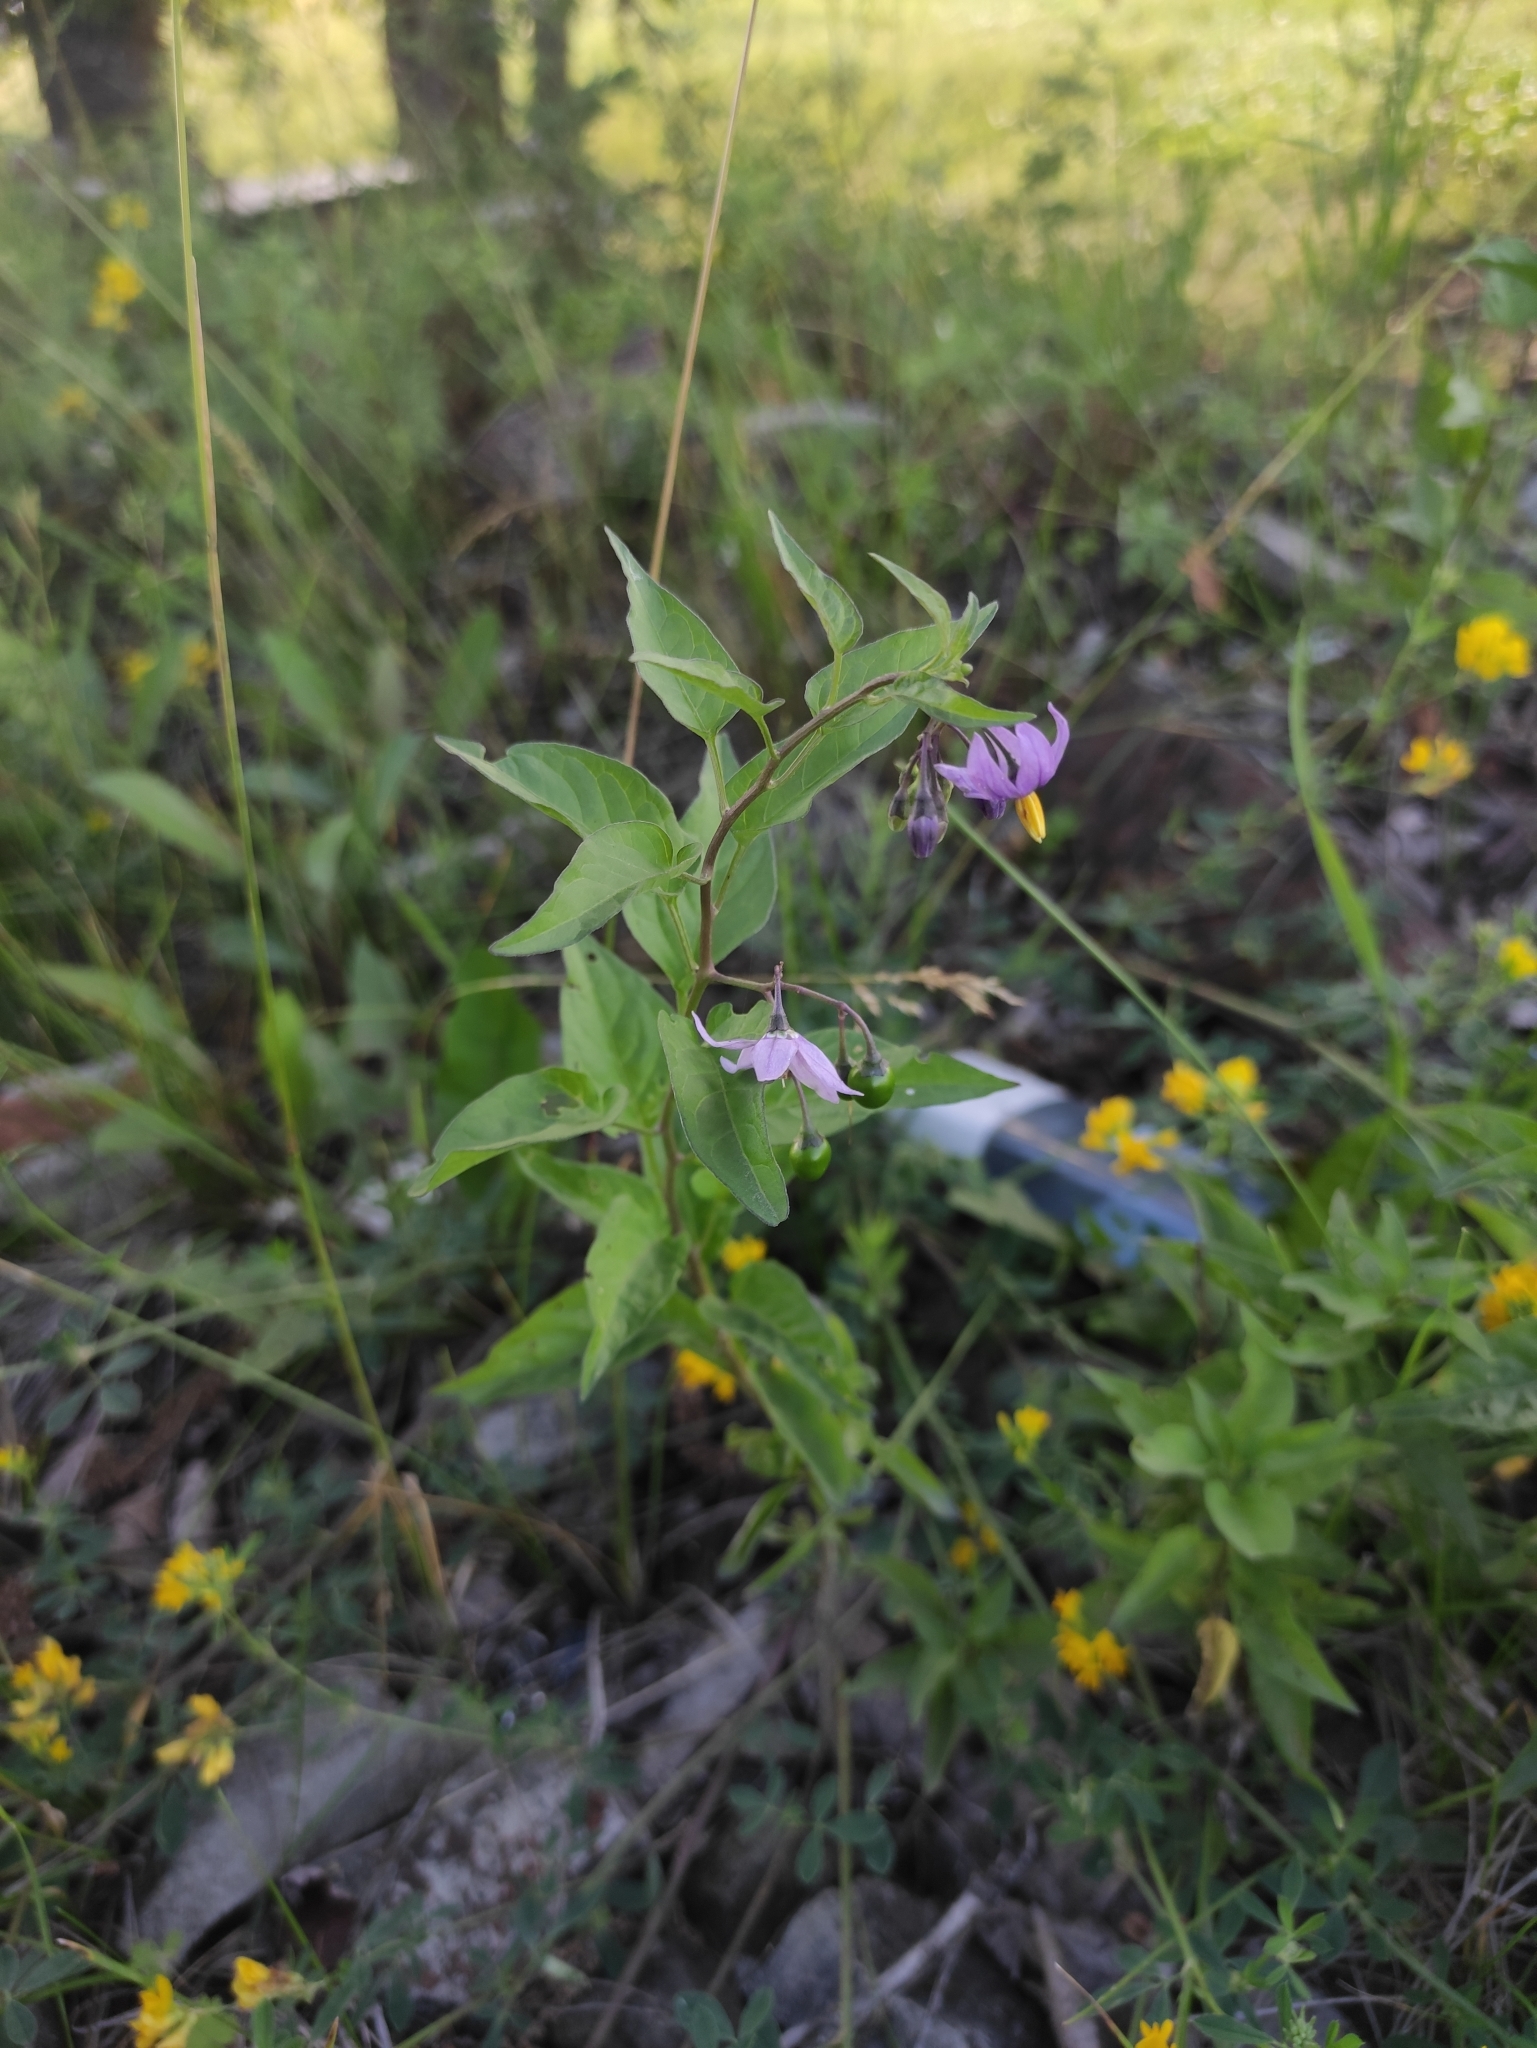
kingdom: Plantae
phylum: Tracheophyta
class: Magnoliopsida
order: Solanales
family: Solanaceae
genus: Solanum
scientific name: Solanum dulcamara
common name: Climbing nightshade
